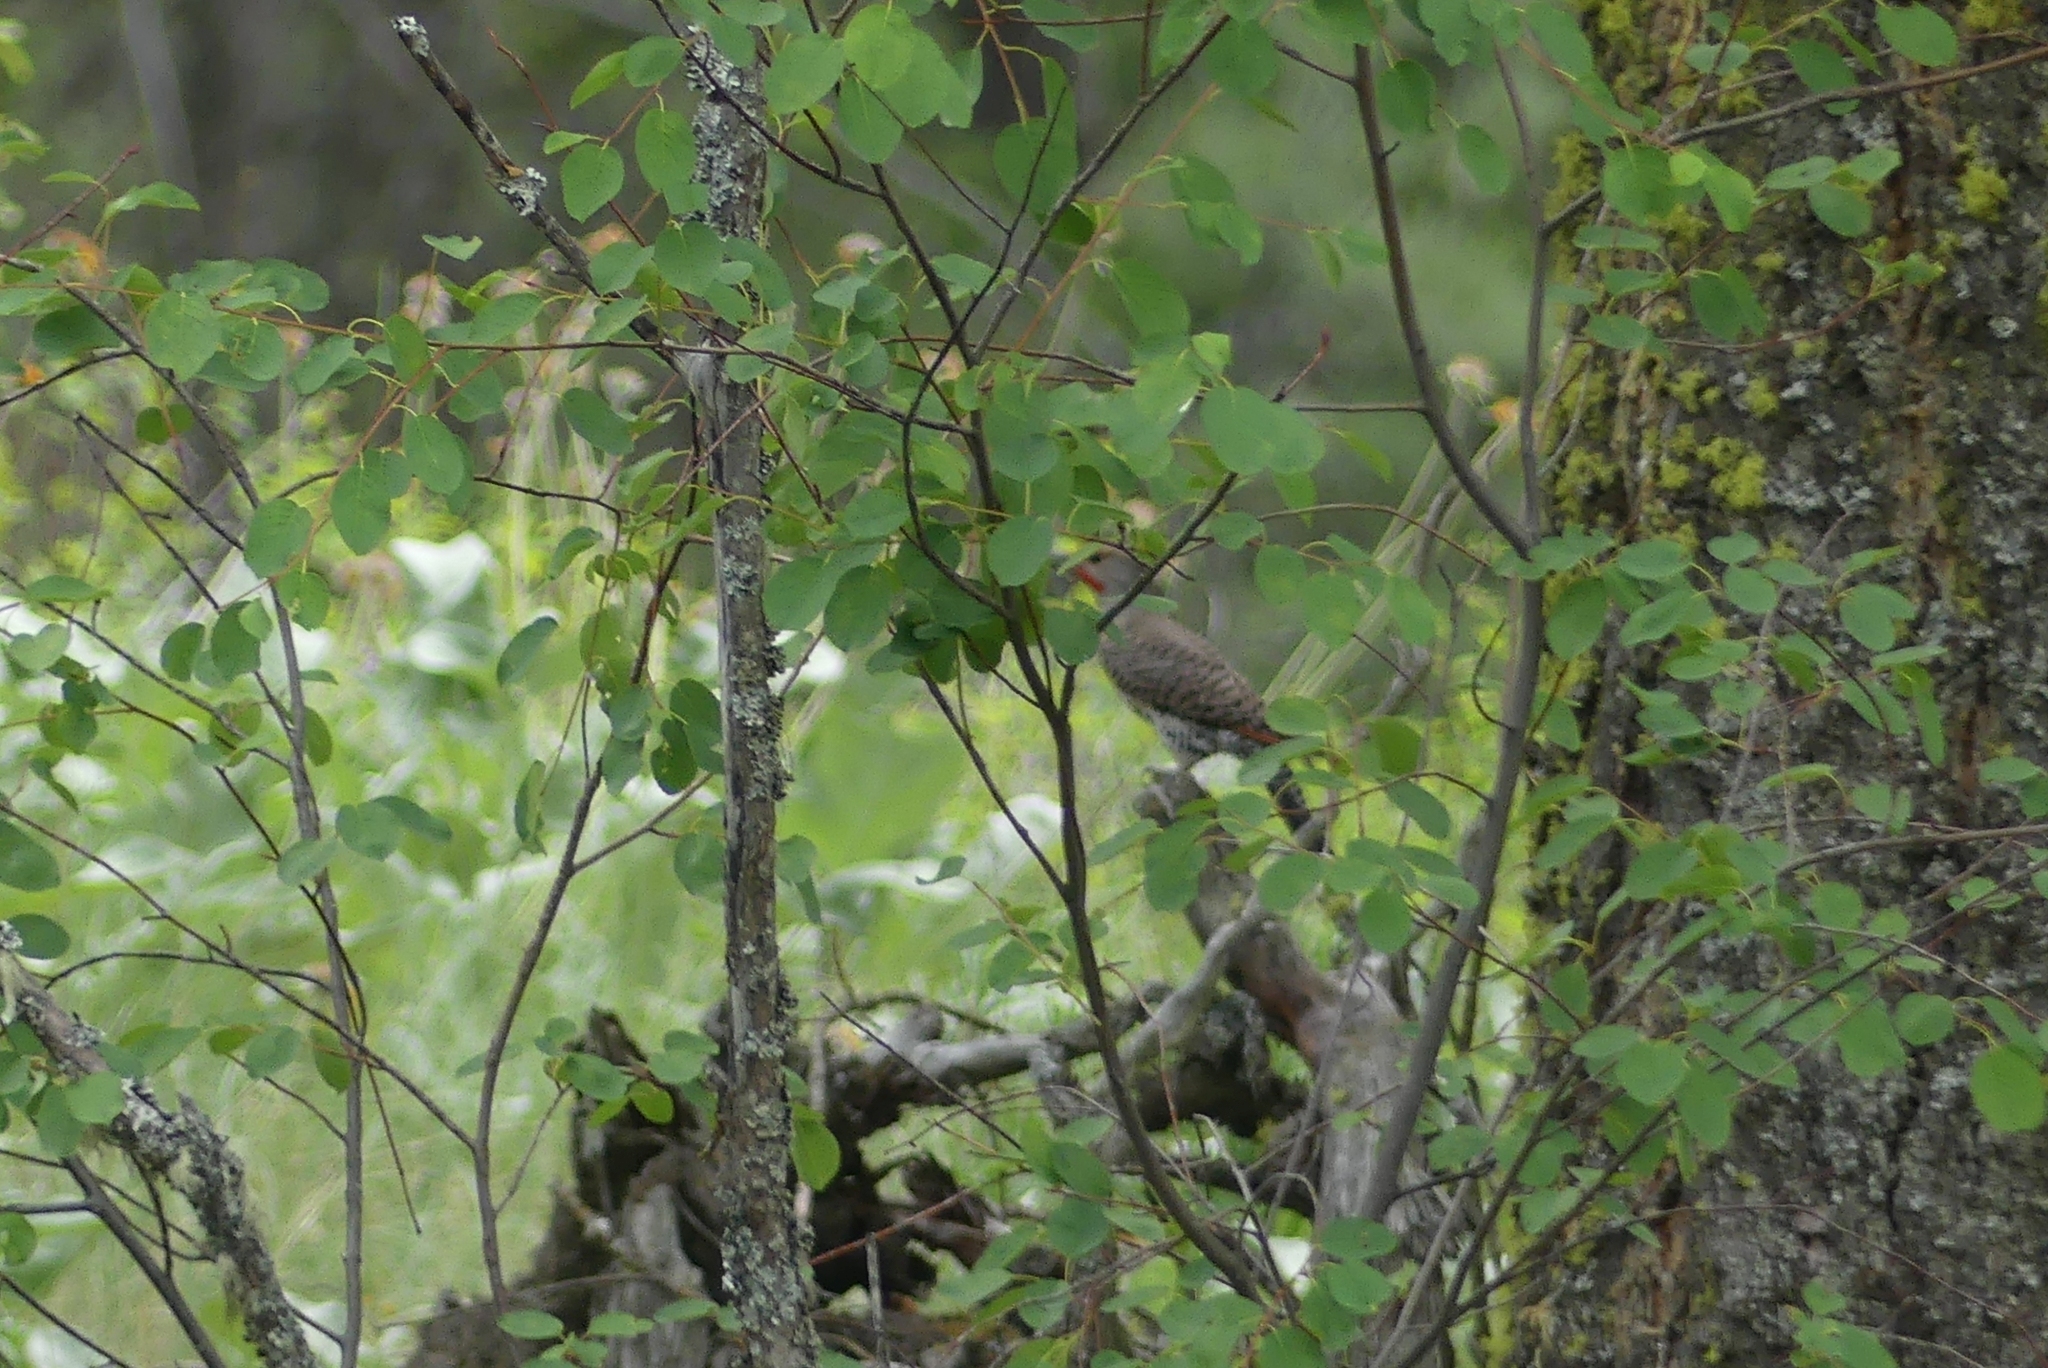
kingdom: Animalia
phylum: Chordata
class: Aves
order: Piciformes
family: Picidae
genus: Colaptes
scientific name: Colaptes auratus
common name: Northern flicker
